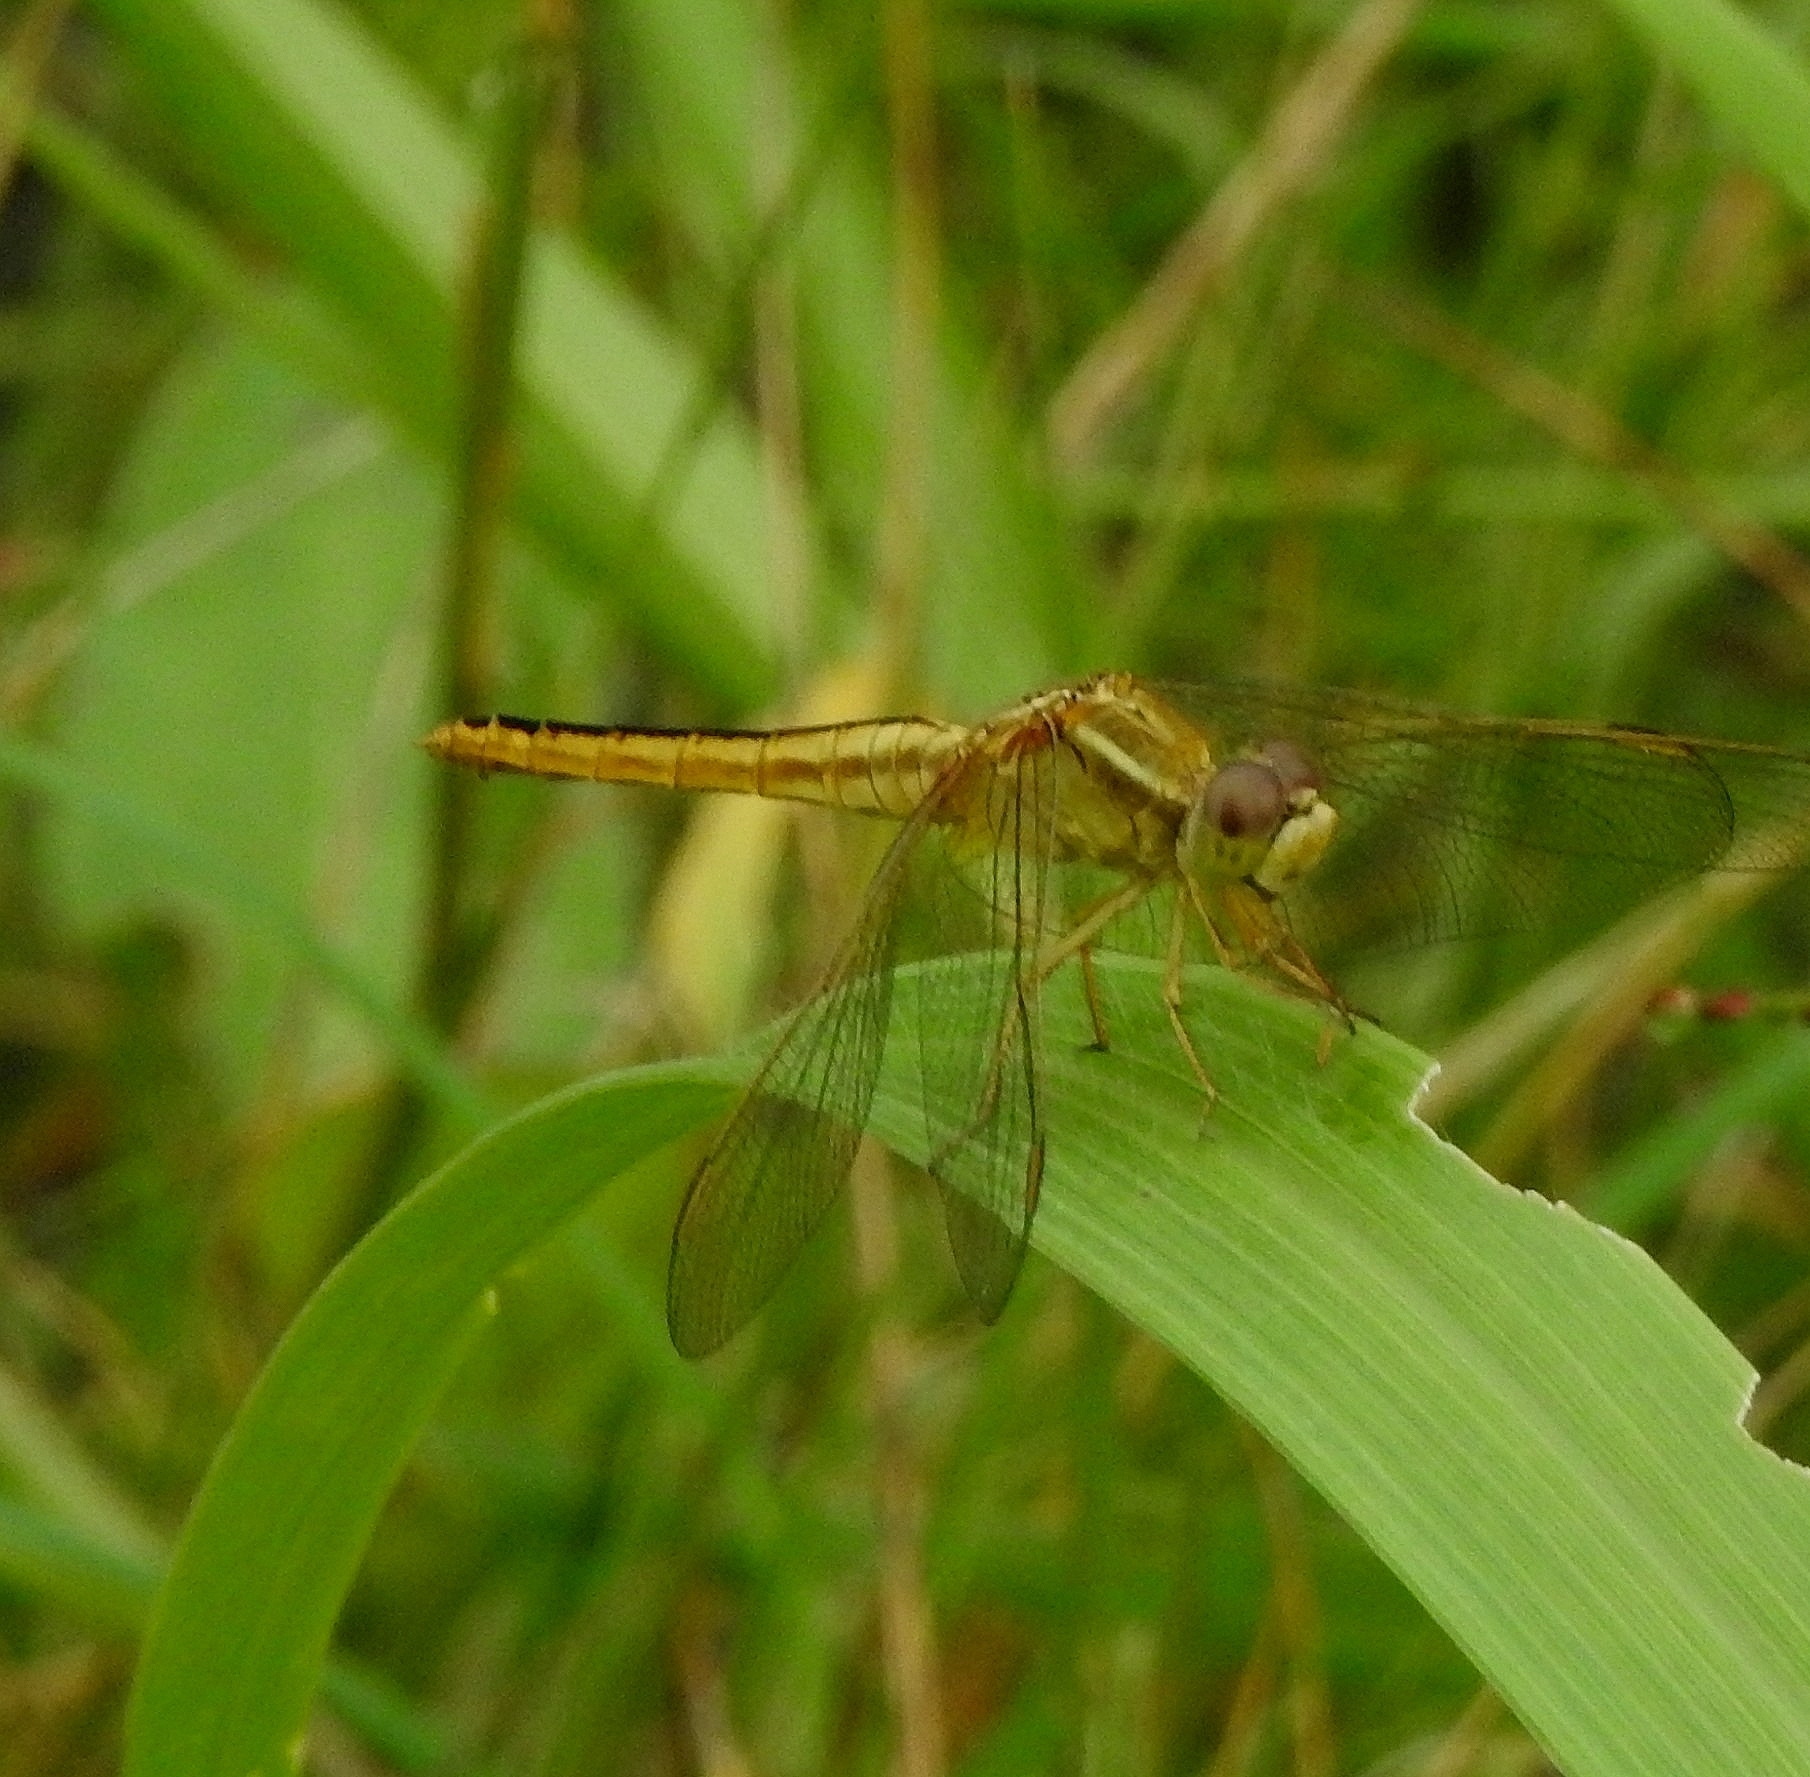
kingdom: Animalia
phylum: Arthropoda
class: Insecta
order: Odonata
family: Libellulidae
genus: Crocothemis
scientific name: Crocothemis servilia
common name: Scarlet skimmer
